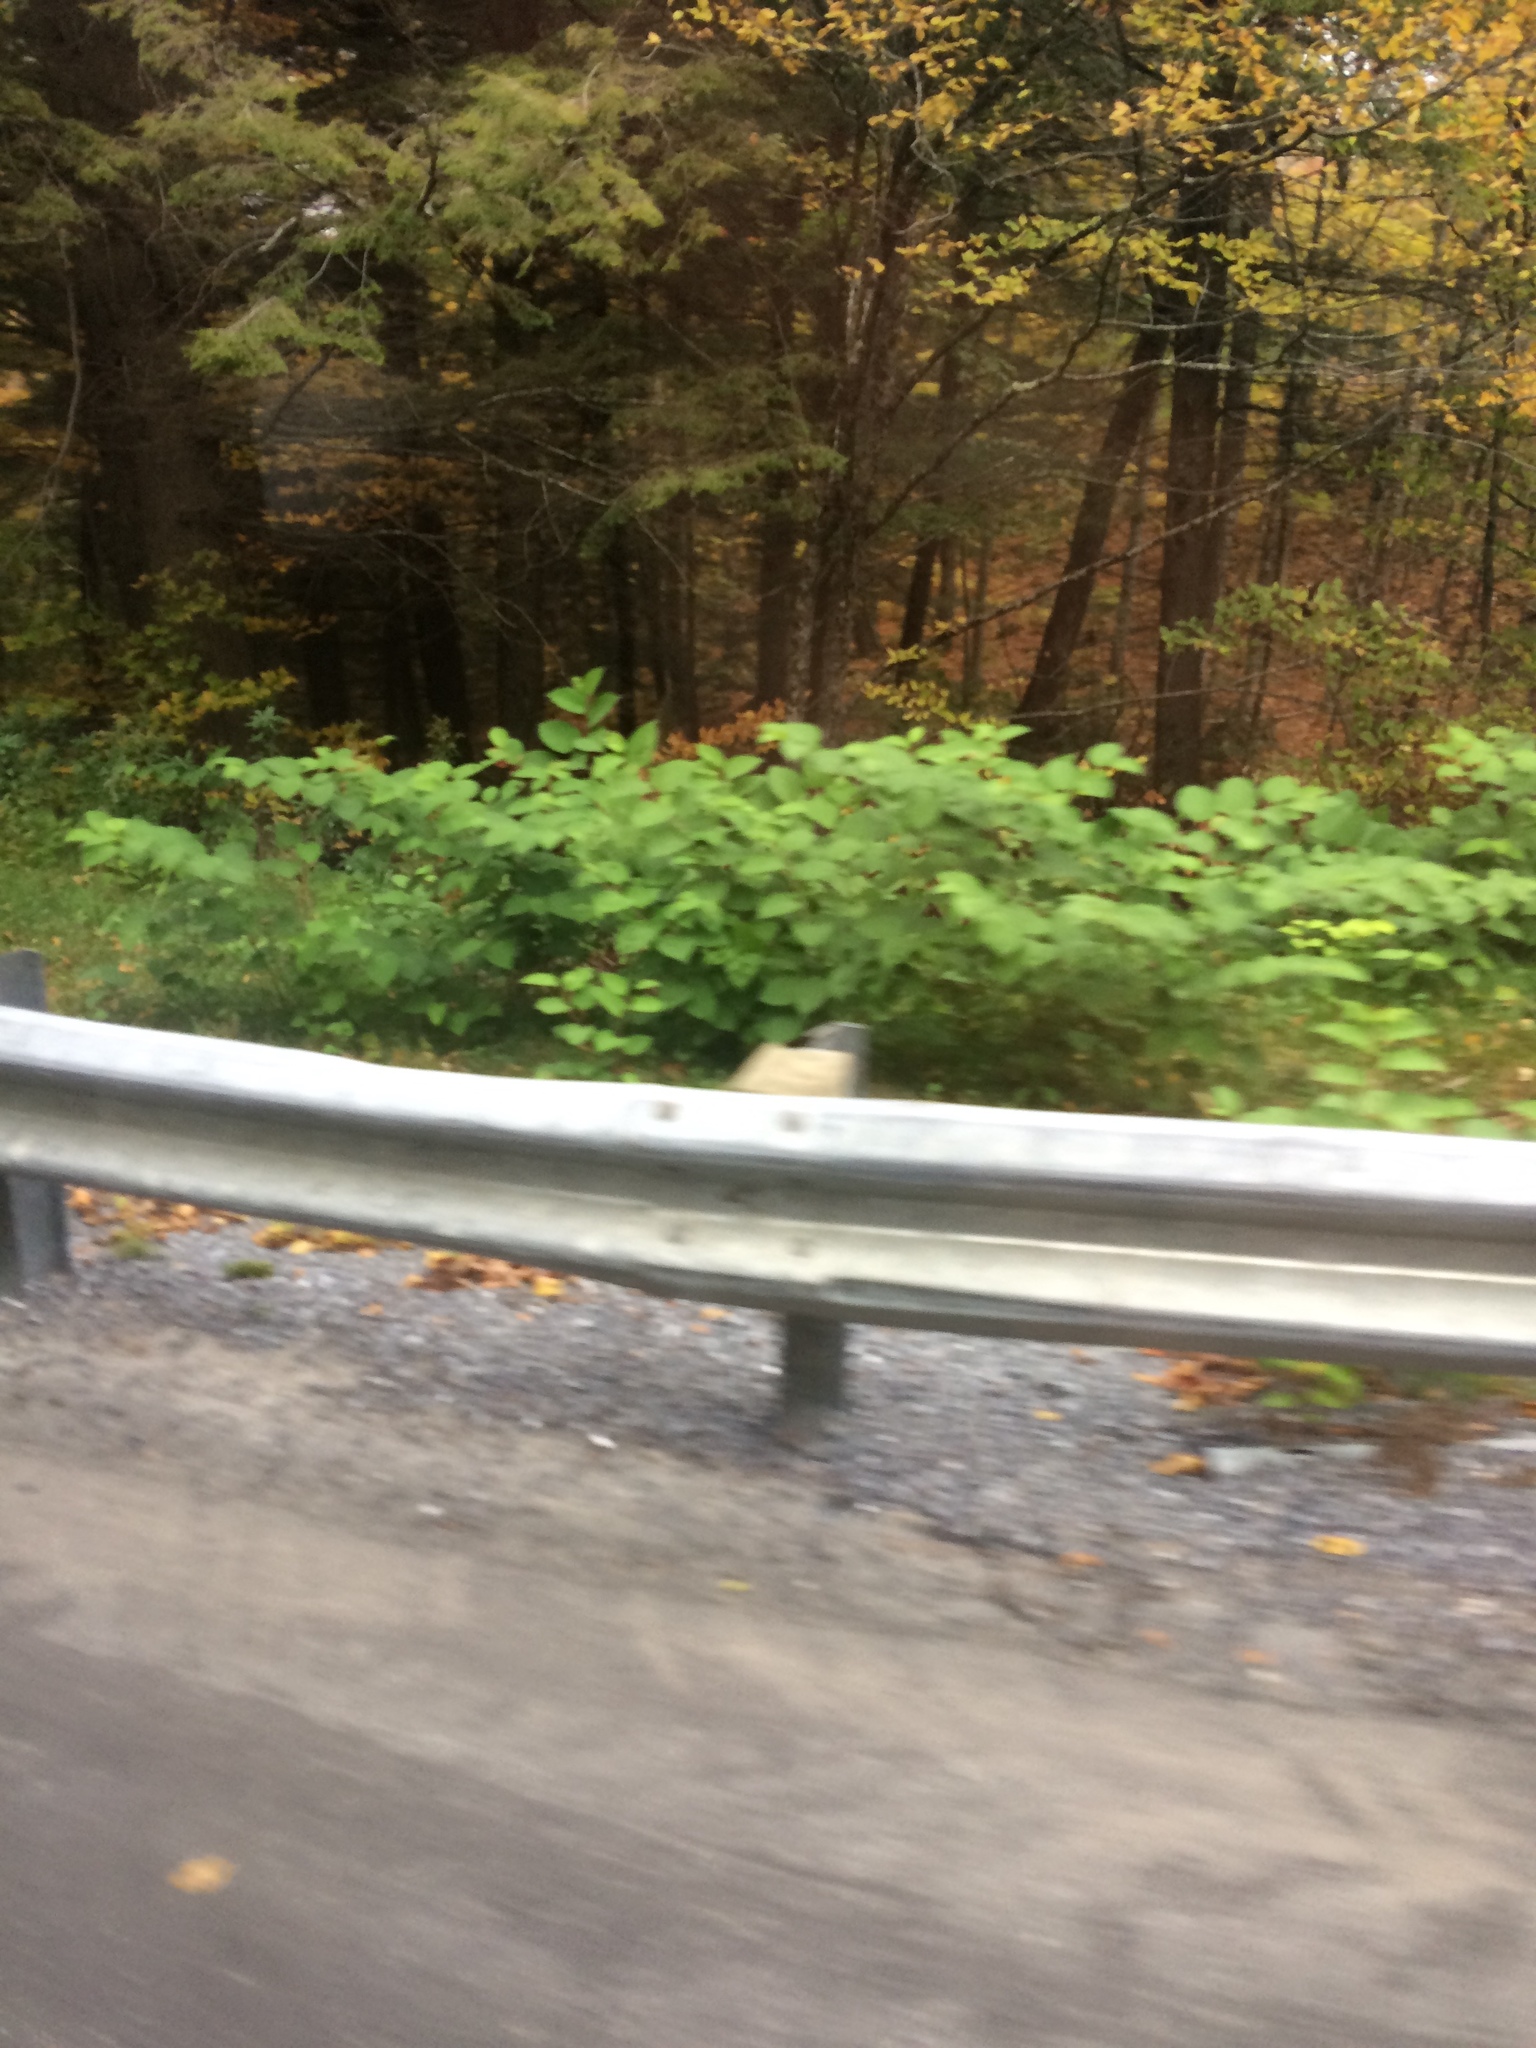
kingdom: Plantae
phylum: Tracheophyta
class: Magnoliopsida
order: Caryophyllales
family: Polygonaceae
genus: Reynoutria
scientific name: Reynoutria japonica
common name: Japanese knotweed
